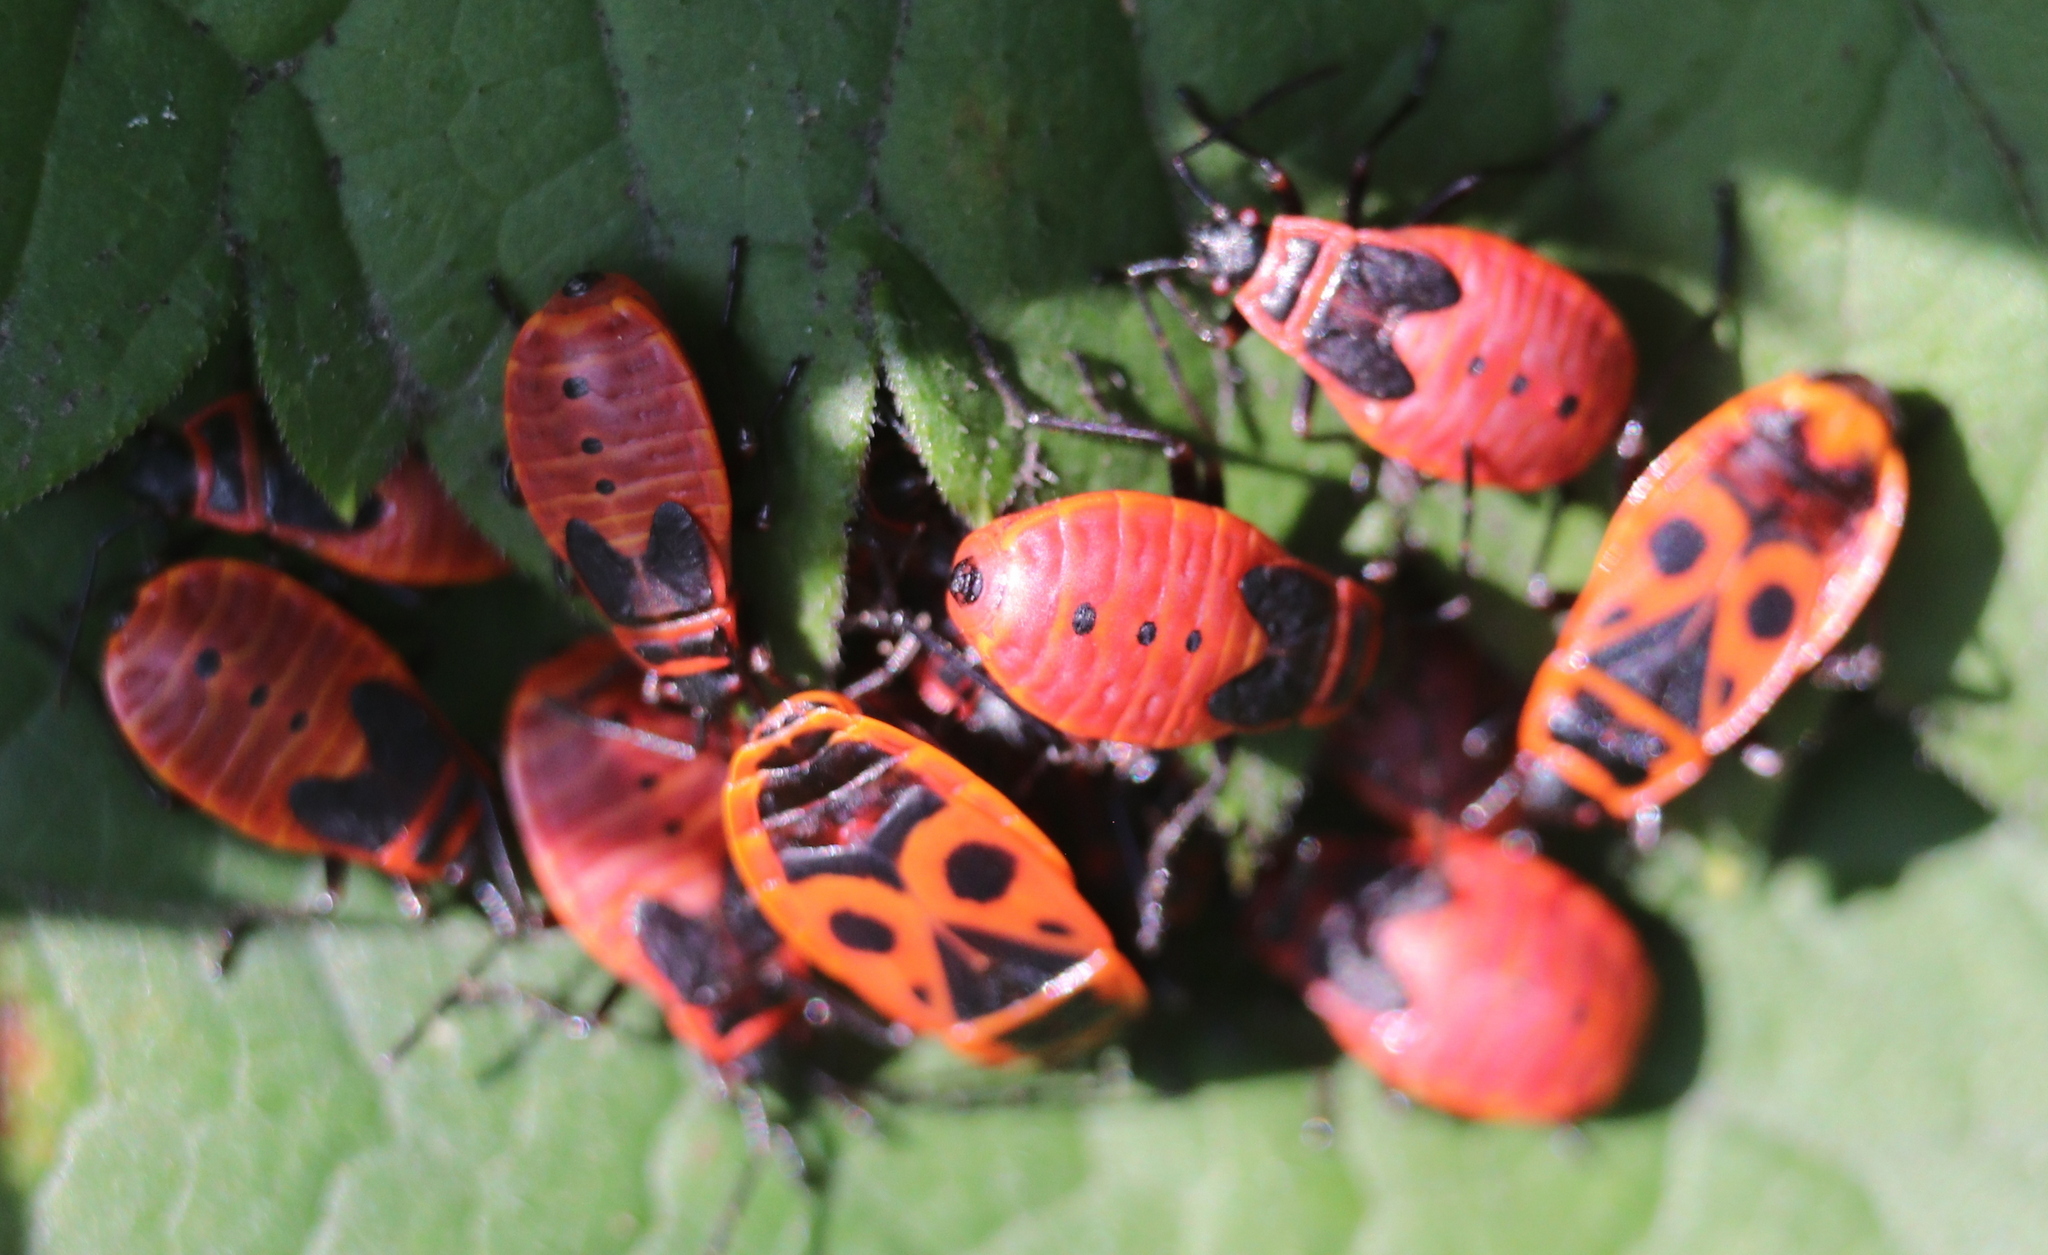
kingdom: Animalia
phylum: Arthropoda
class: Insecta
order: Hemiptera
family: Pyrrhocoridae
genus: Pyrrhocoris
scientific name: Pyrrhocoris apterus
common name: Firebug
